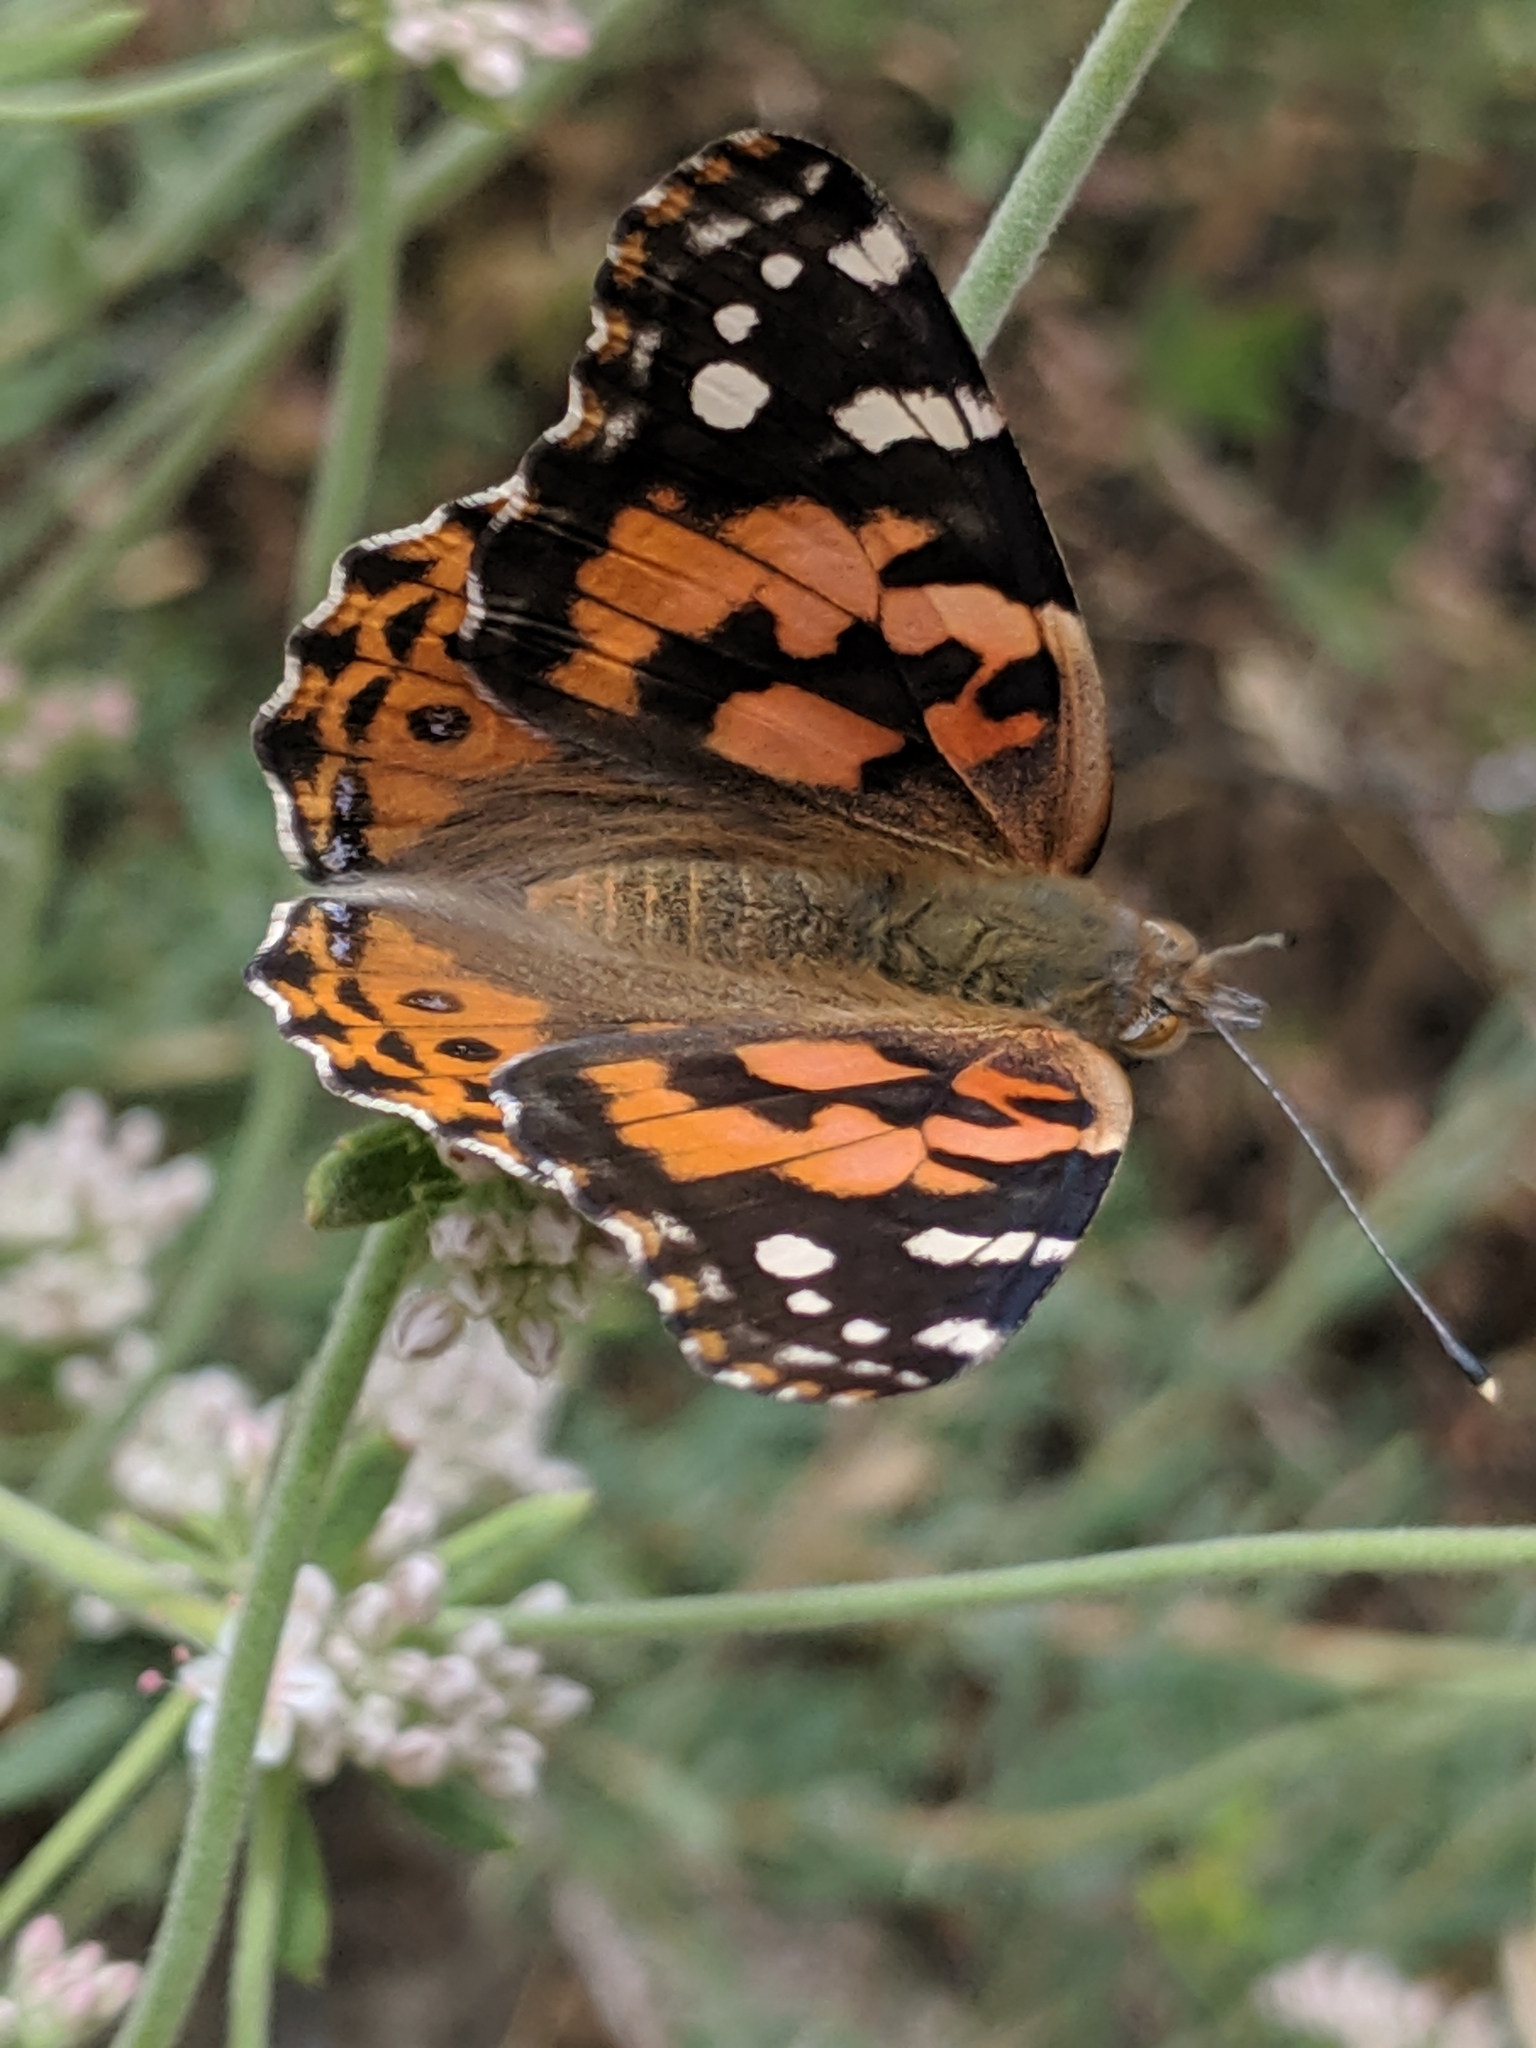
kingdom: Animalia
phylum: Arthropoda
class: Insecta
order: Lepidoptera
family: Nymphalidae
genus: Vanessa
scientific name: Vanessa cardui
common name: Painted lady
